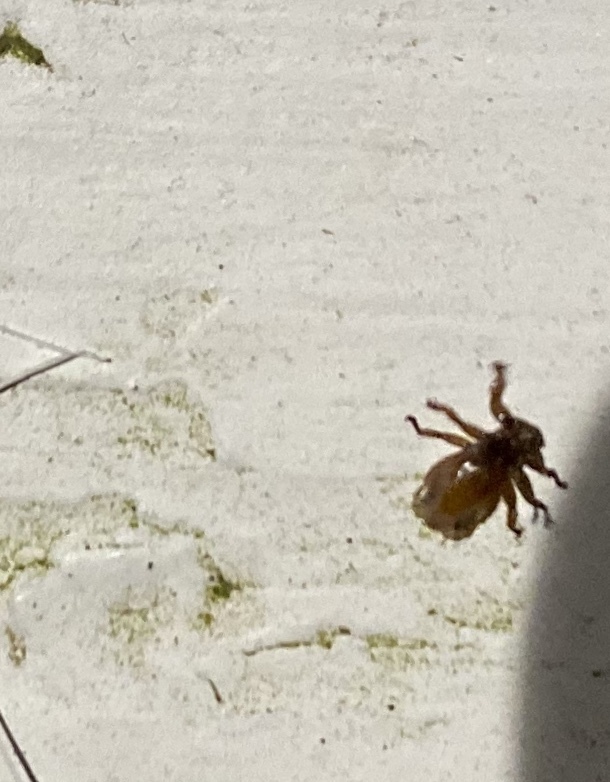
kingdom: Animalia
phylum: Arthropoda
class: Insecta
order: Diptera
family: Hippoboscidae
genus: Lipoptena
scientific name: Lipoptena mazamae
